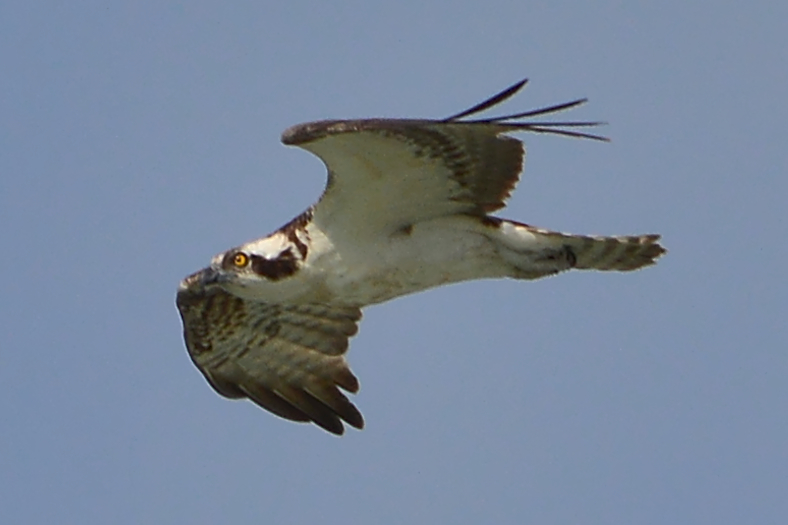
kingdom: Animalia
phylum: Chordata
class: Aves
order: Accipitriformes
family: Pandionidae
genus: Pandion
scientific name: Pandion haliaetus
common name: Osprey
